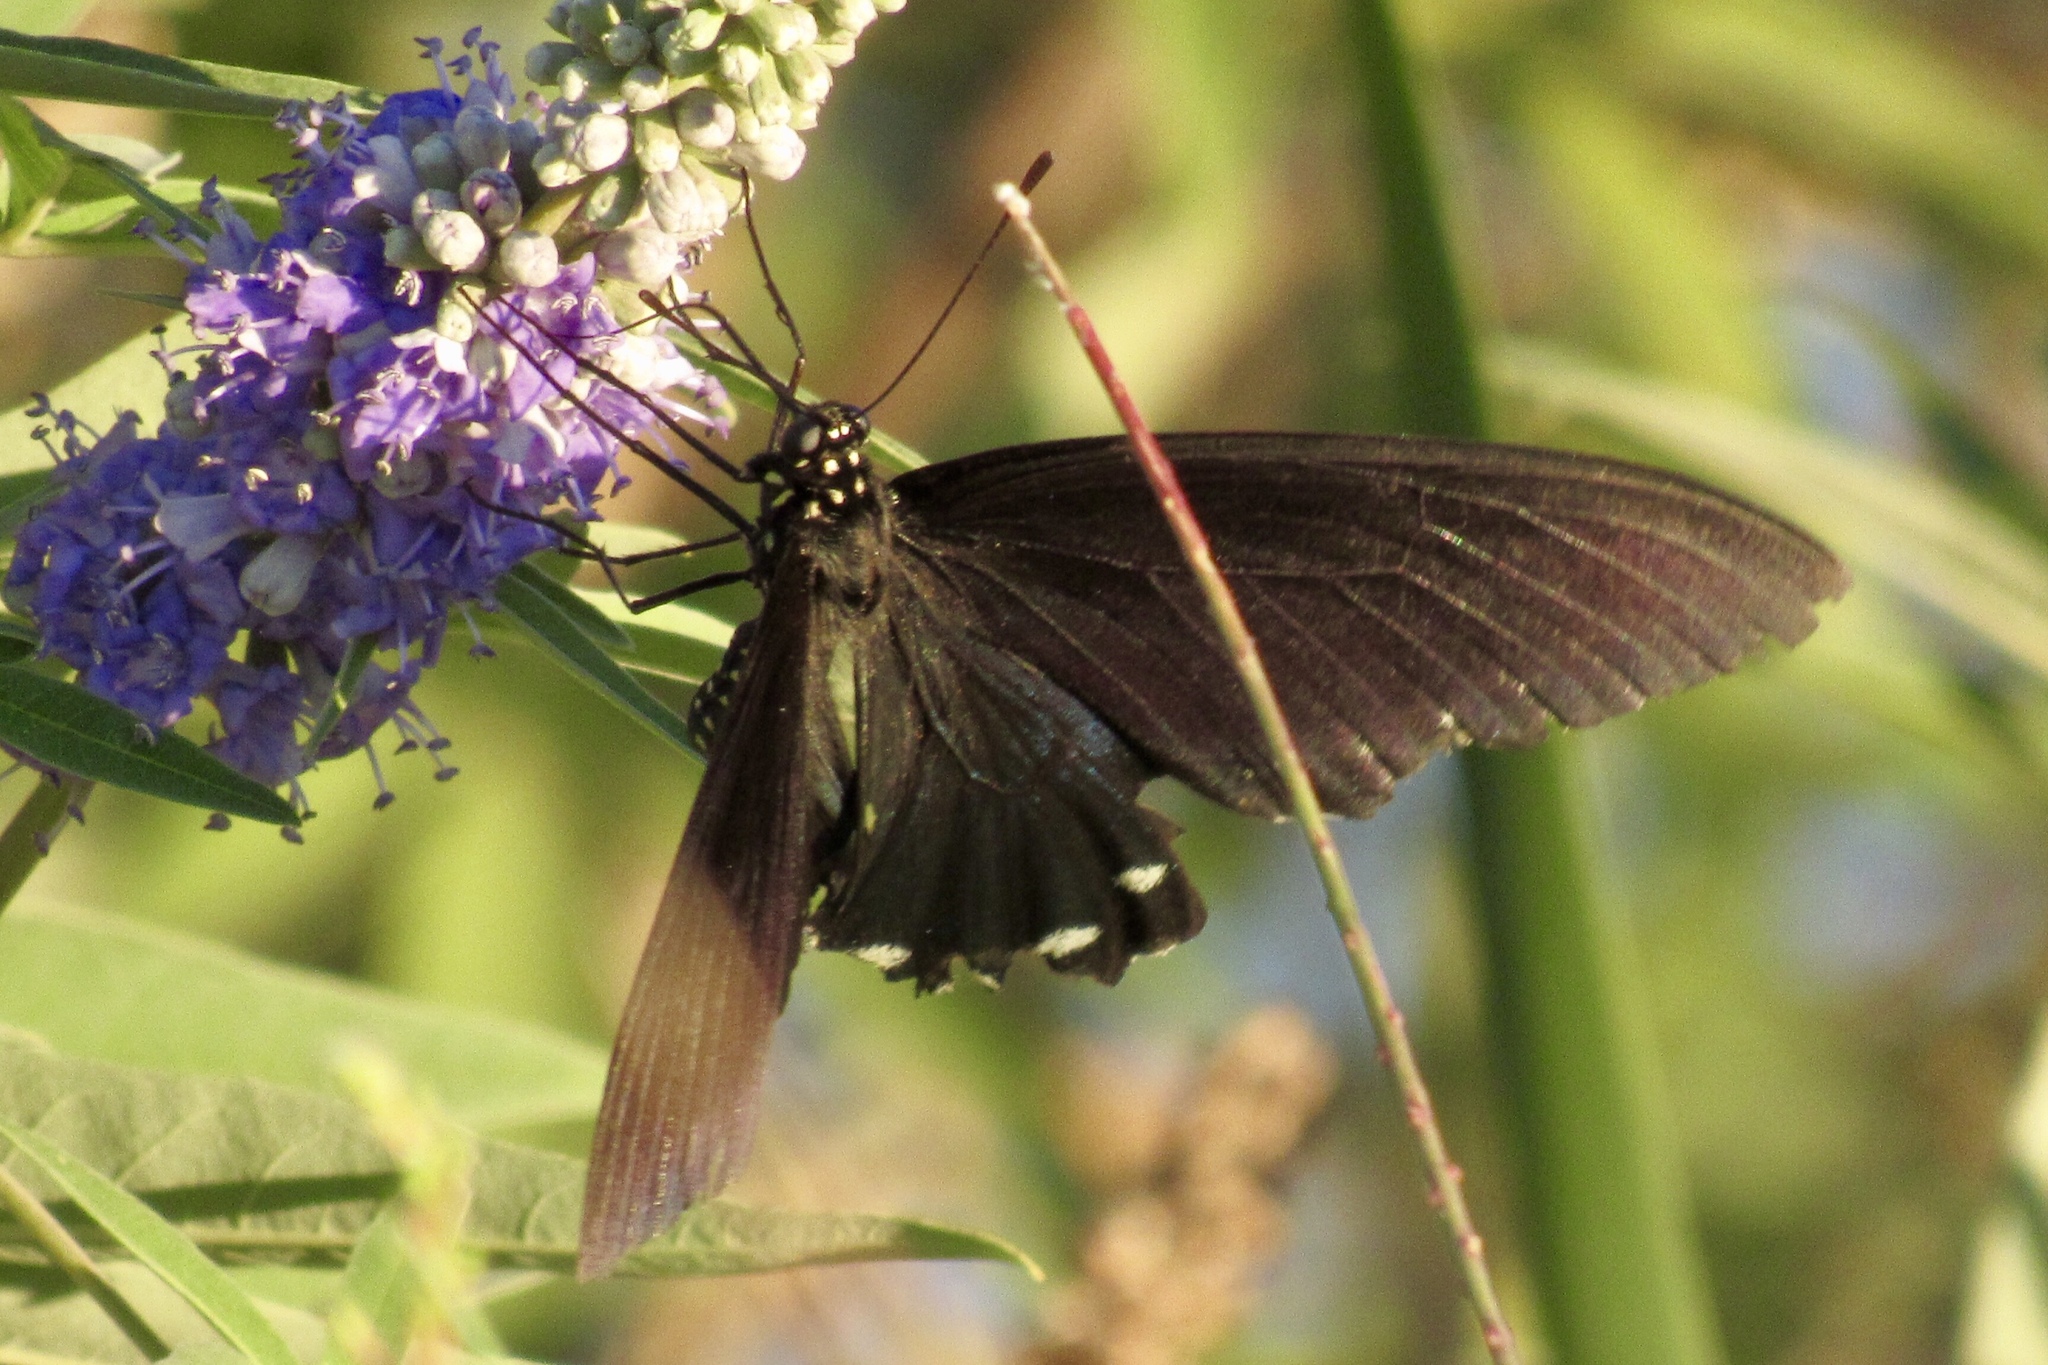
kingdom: Animalia
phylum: Arthropoda
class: Insecta
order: Lepidoptera
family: Papilionidae
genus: Battus
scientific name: Battus philenor
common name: Pipevine swallowtail
